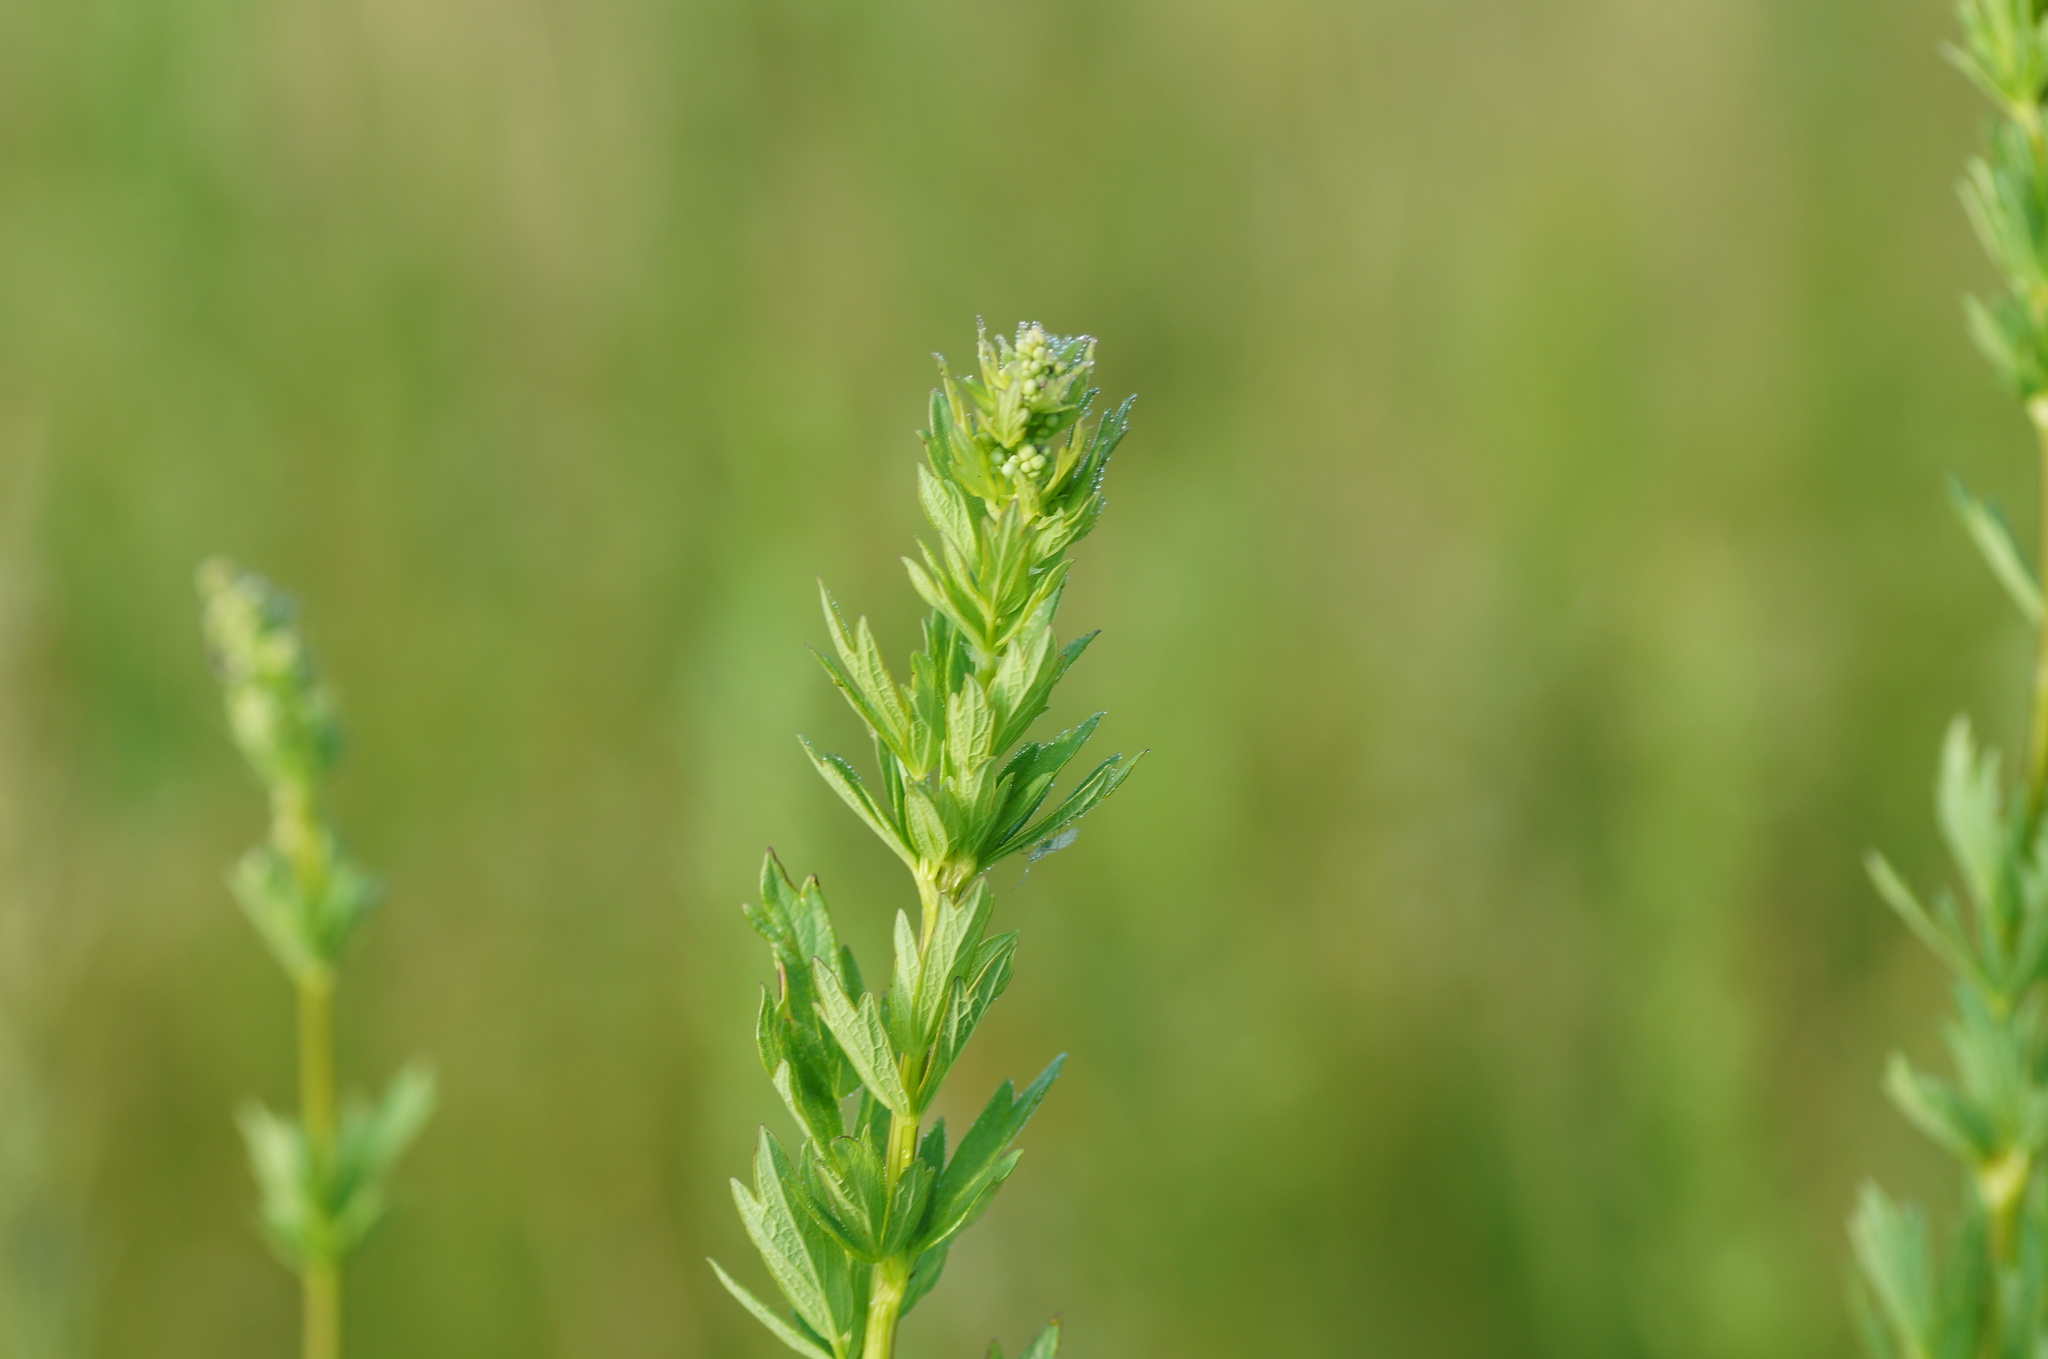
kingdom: Plantae
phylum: Tracheophyta
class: Magnoliopsida
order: Ranunculales
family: Ranunculaceae
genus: Thalictrum
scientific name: Thalictrum simplex
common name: Small meadow-rue
